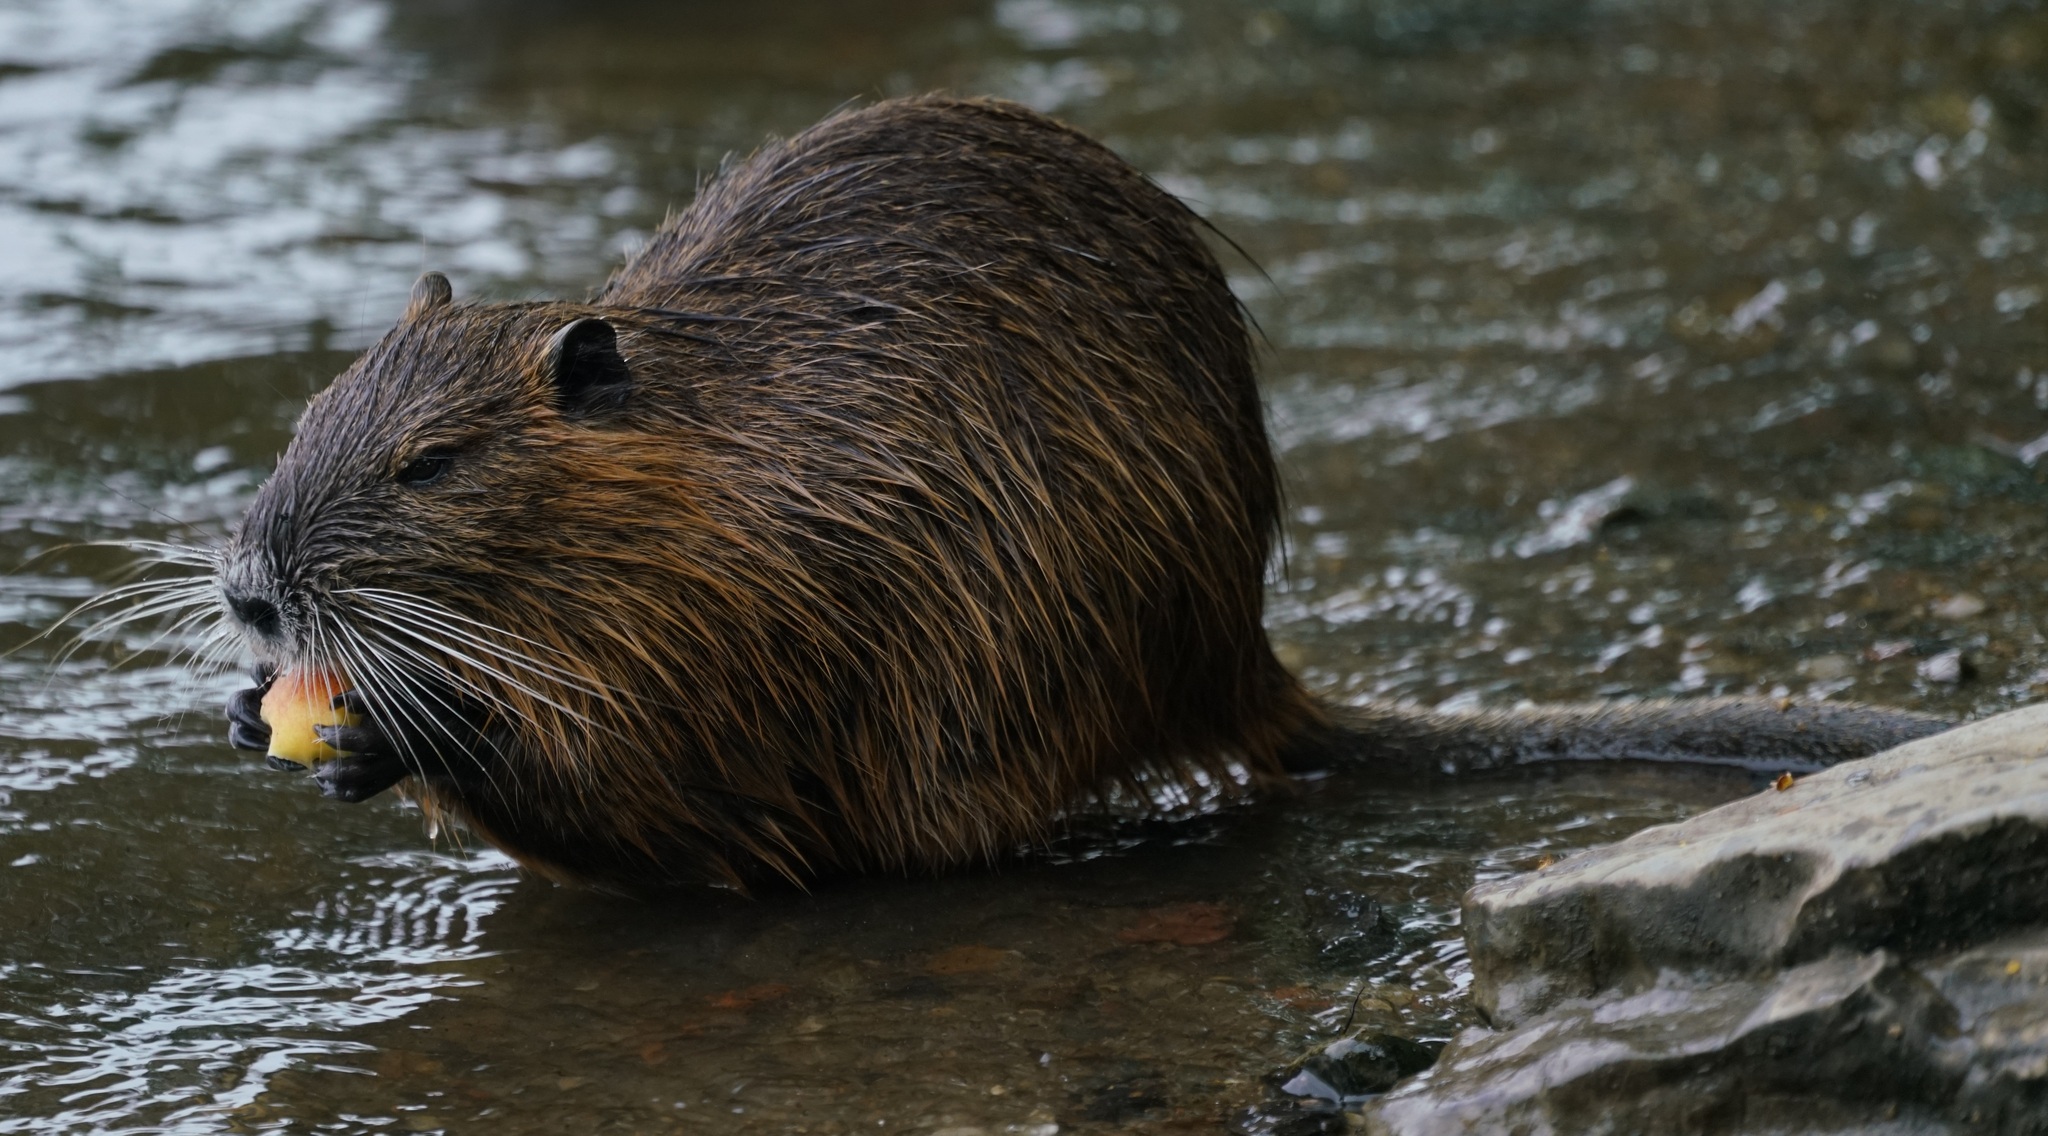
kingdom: Animalia
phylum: Chordata
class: Mammalia
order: Rodentia
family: Myocastoridae
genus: Myocastor
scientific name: Myocastor coypus
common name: Coypu
